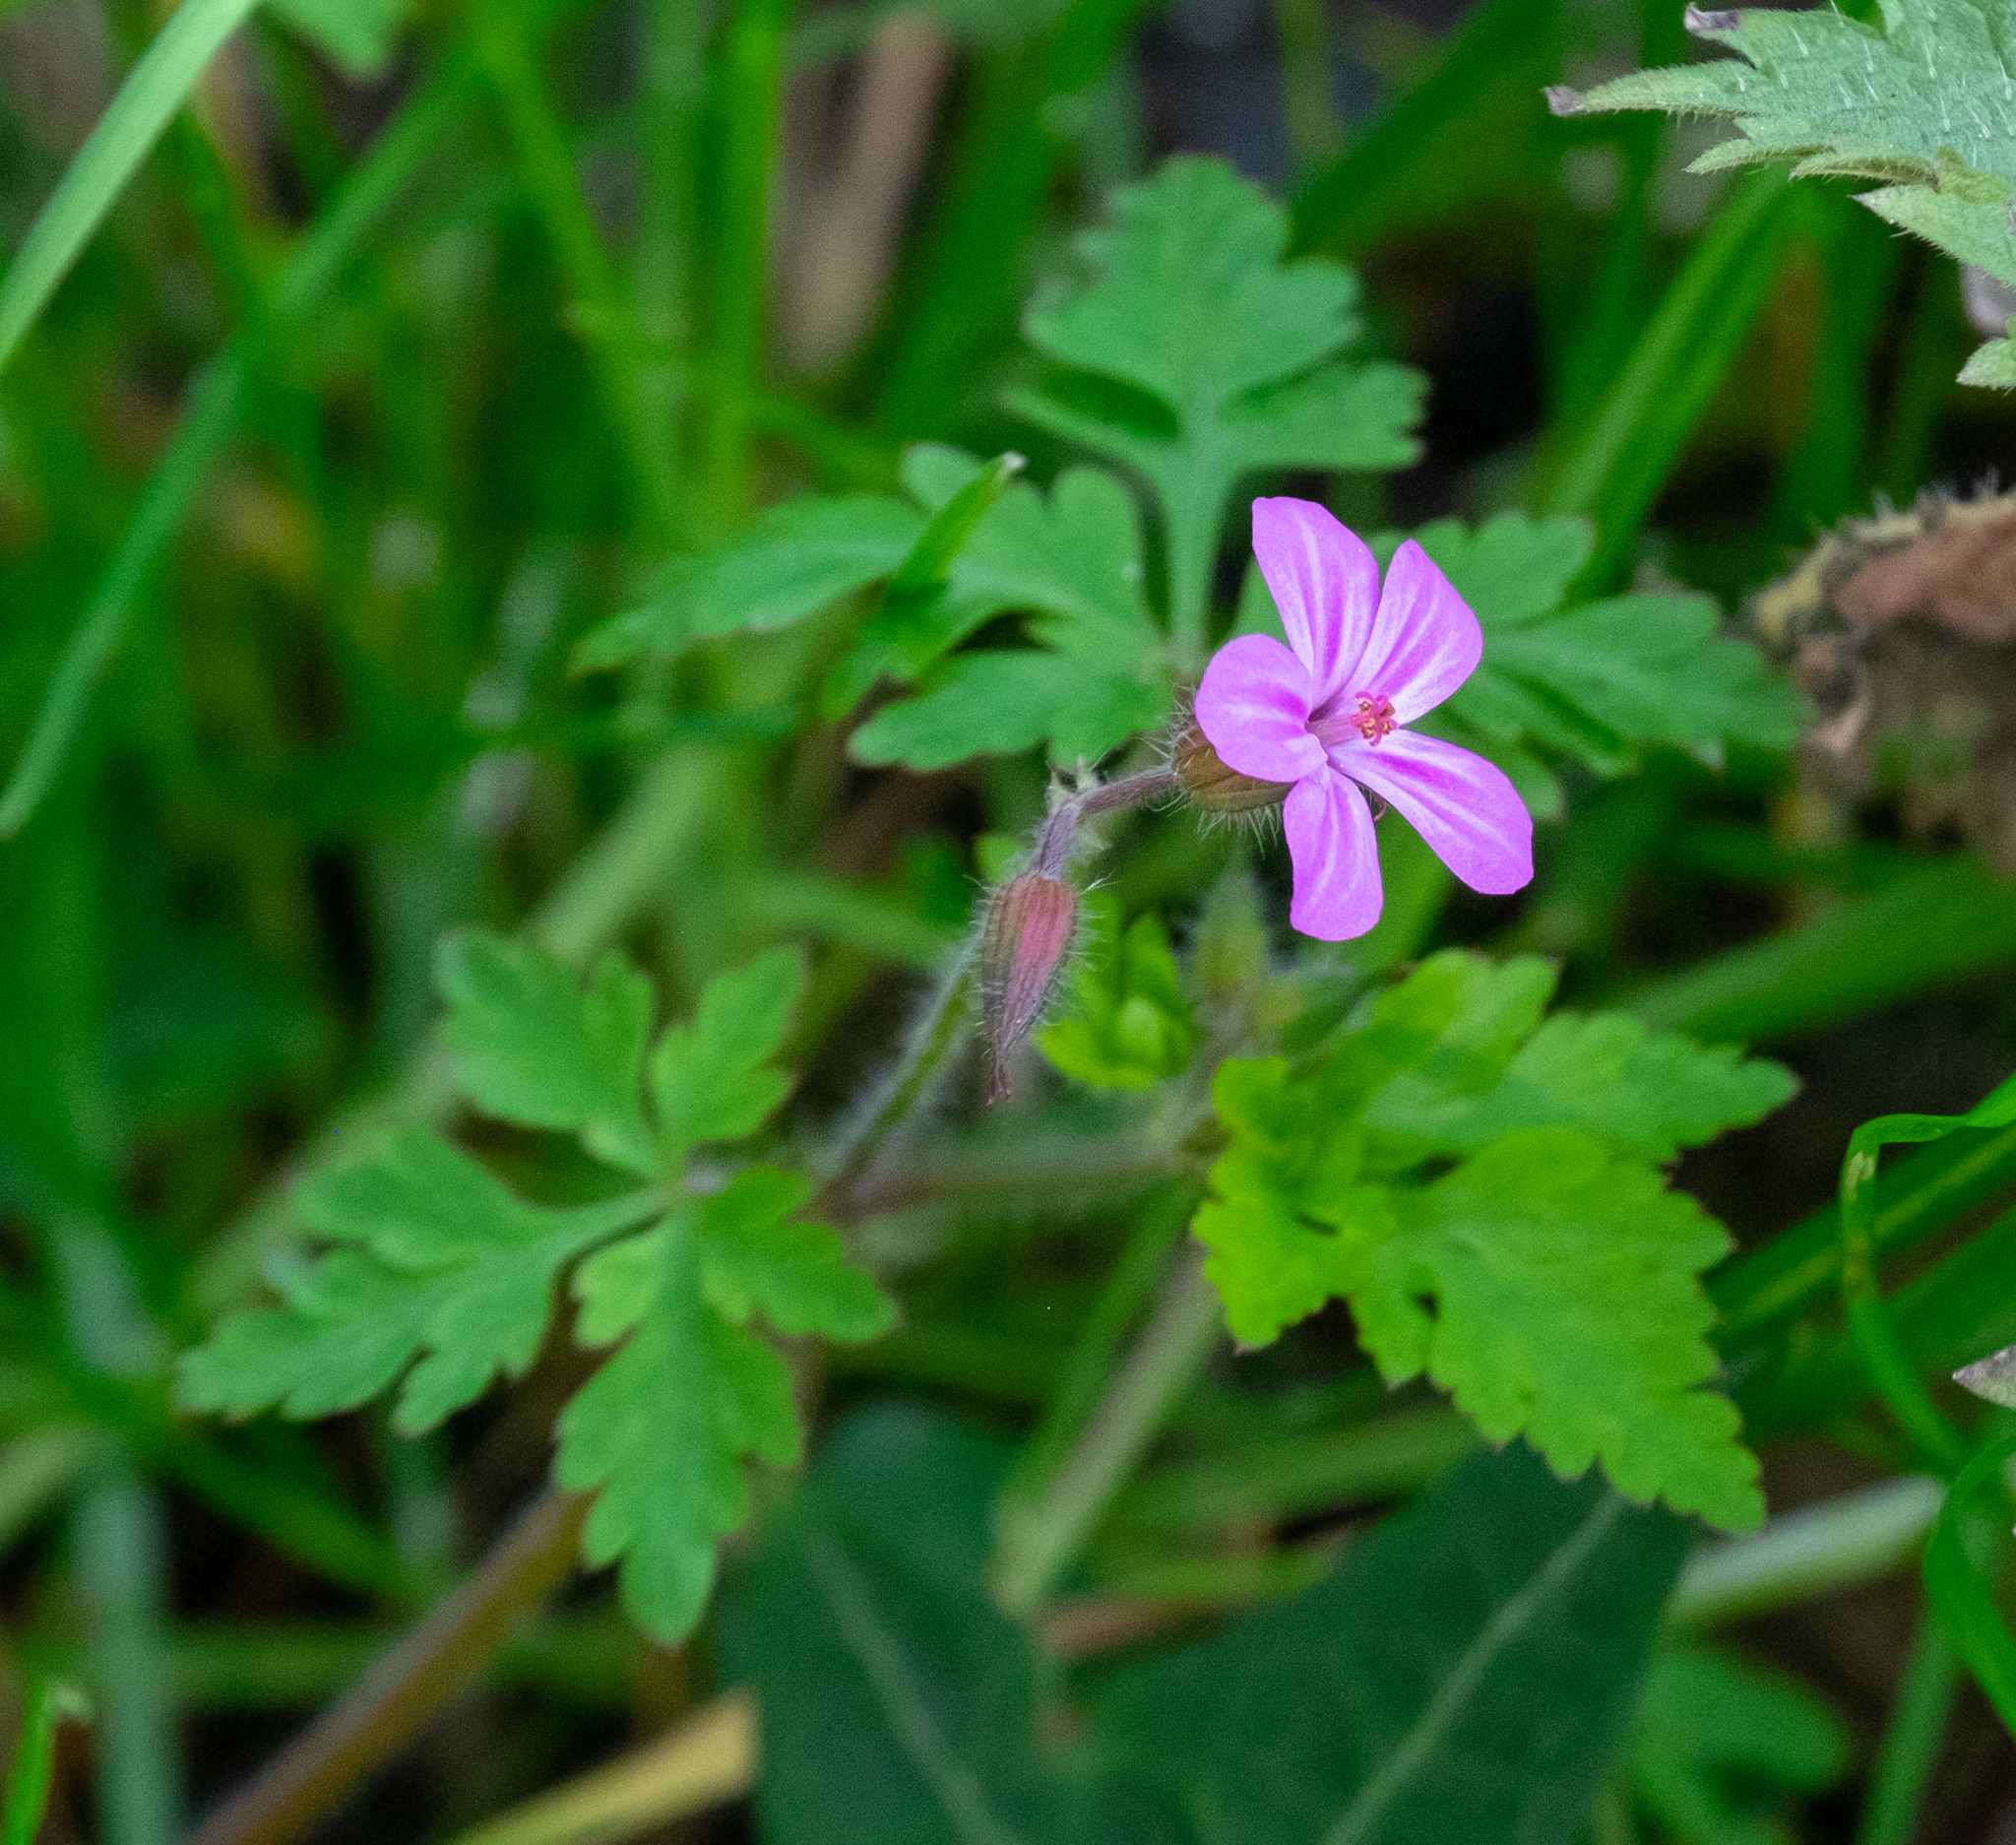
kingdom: Plantae
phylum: Tracheophyta
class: Magnoliopsida
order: Geraniales
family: Geraniaceae
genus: Geranium
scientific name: Geranium robertianum
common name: Herb-robert
